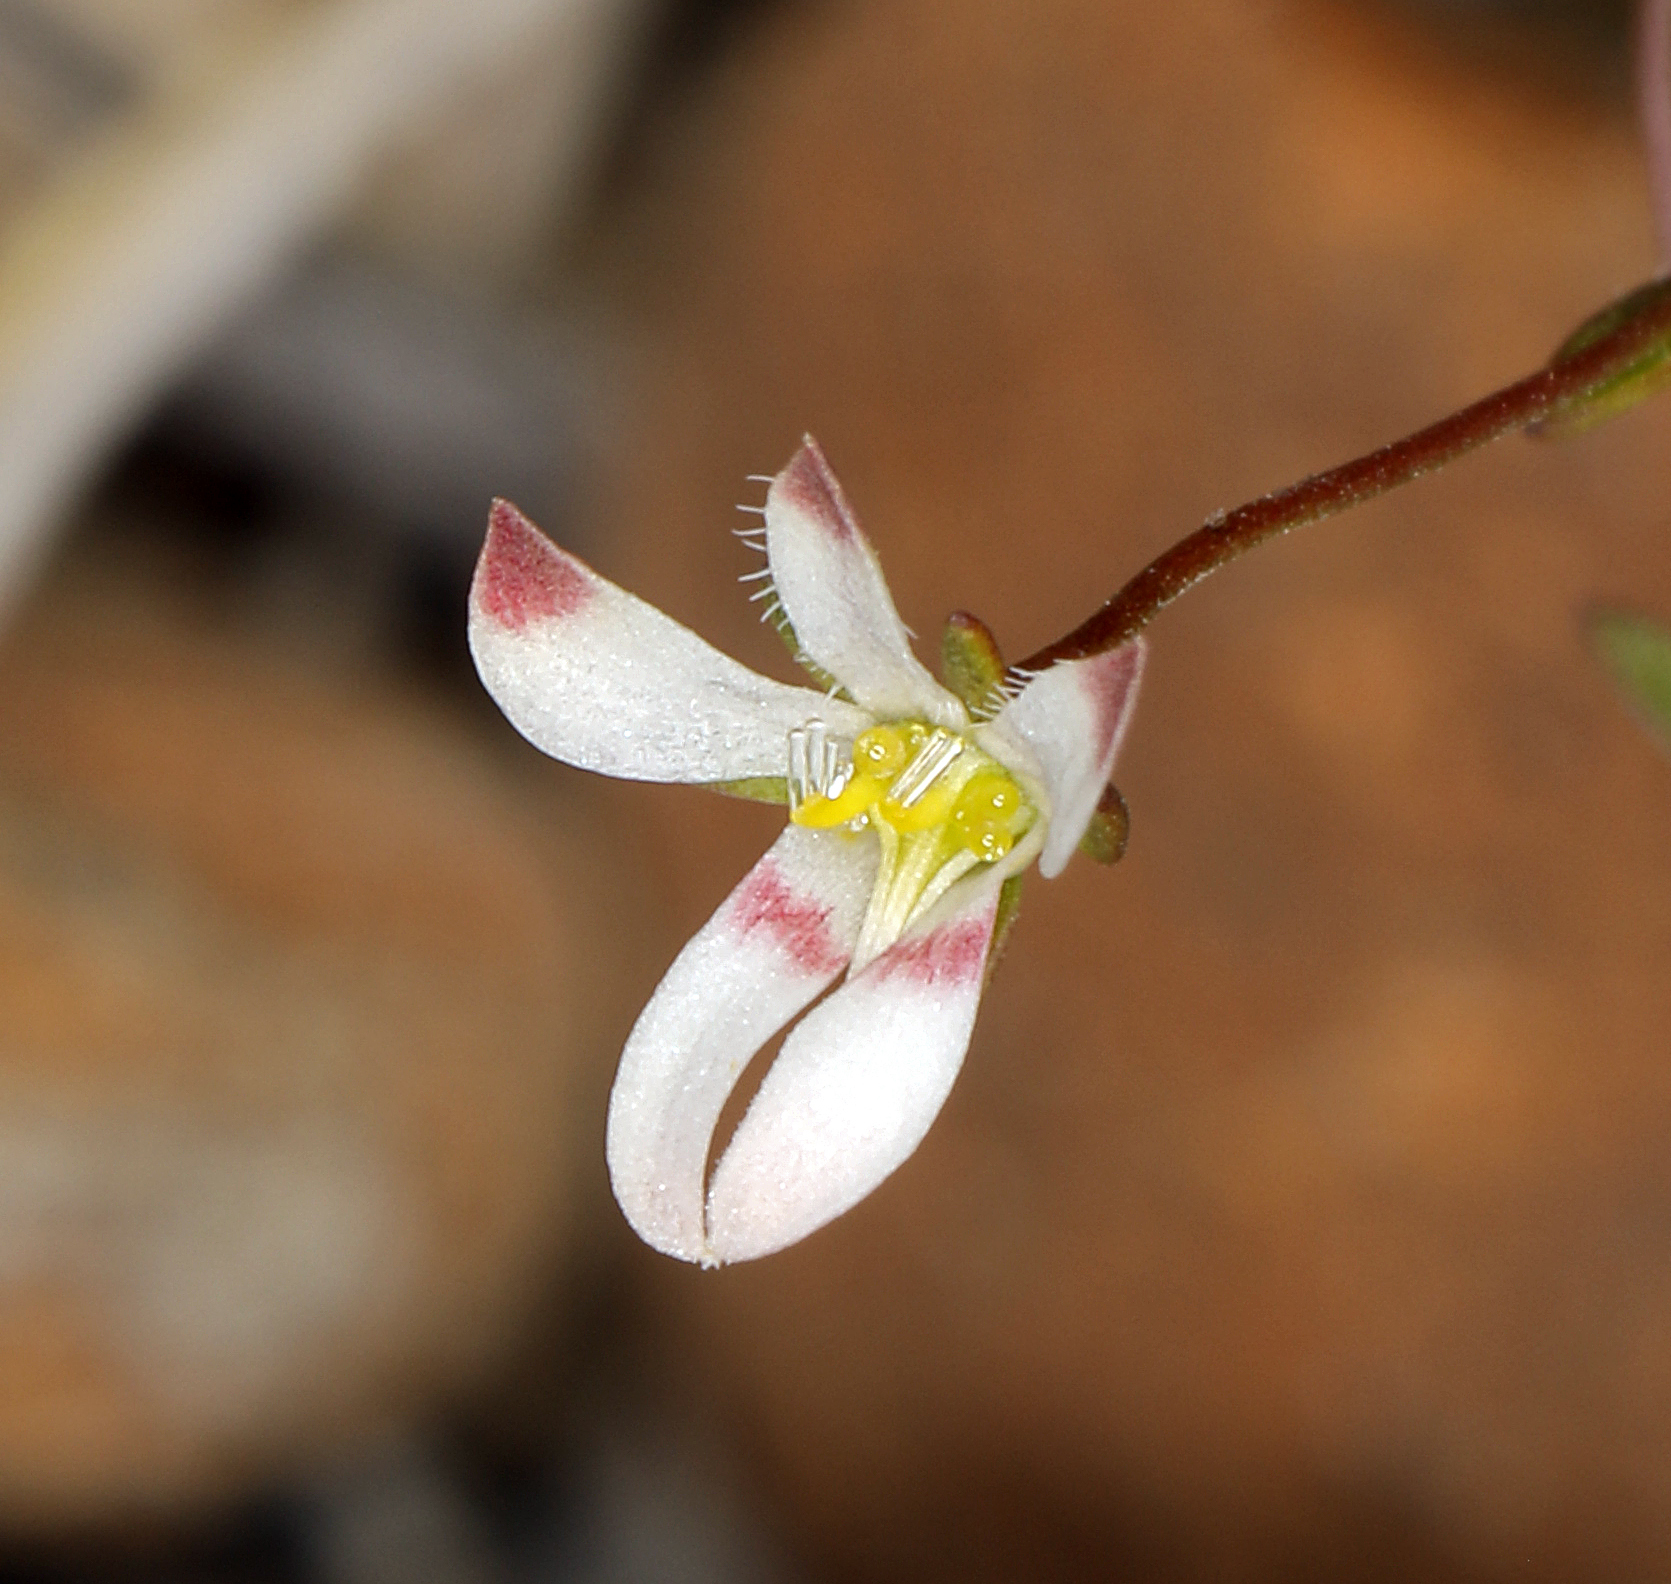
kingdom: Plantae
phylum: Tracheophyta
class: Magnoliopsida
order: Asterales
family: Campanulaceae
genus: Nemacladus
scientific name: Nemacladus orientalis
